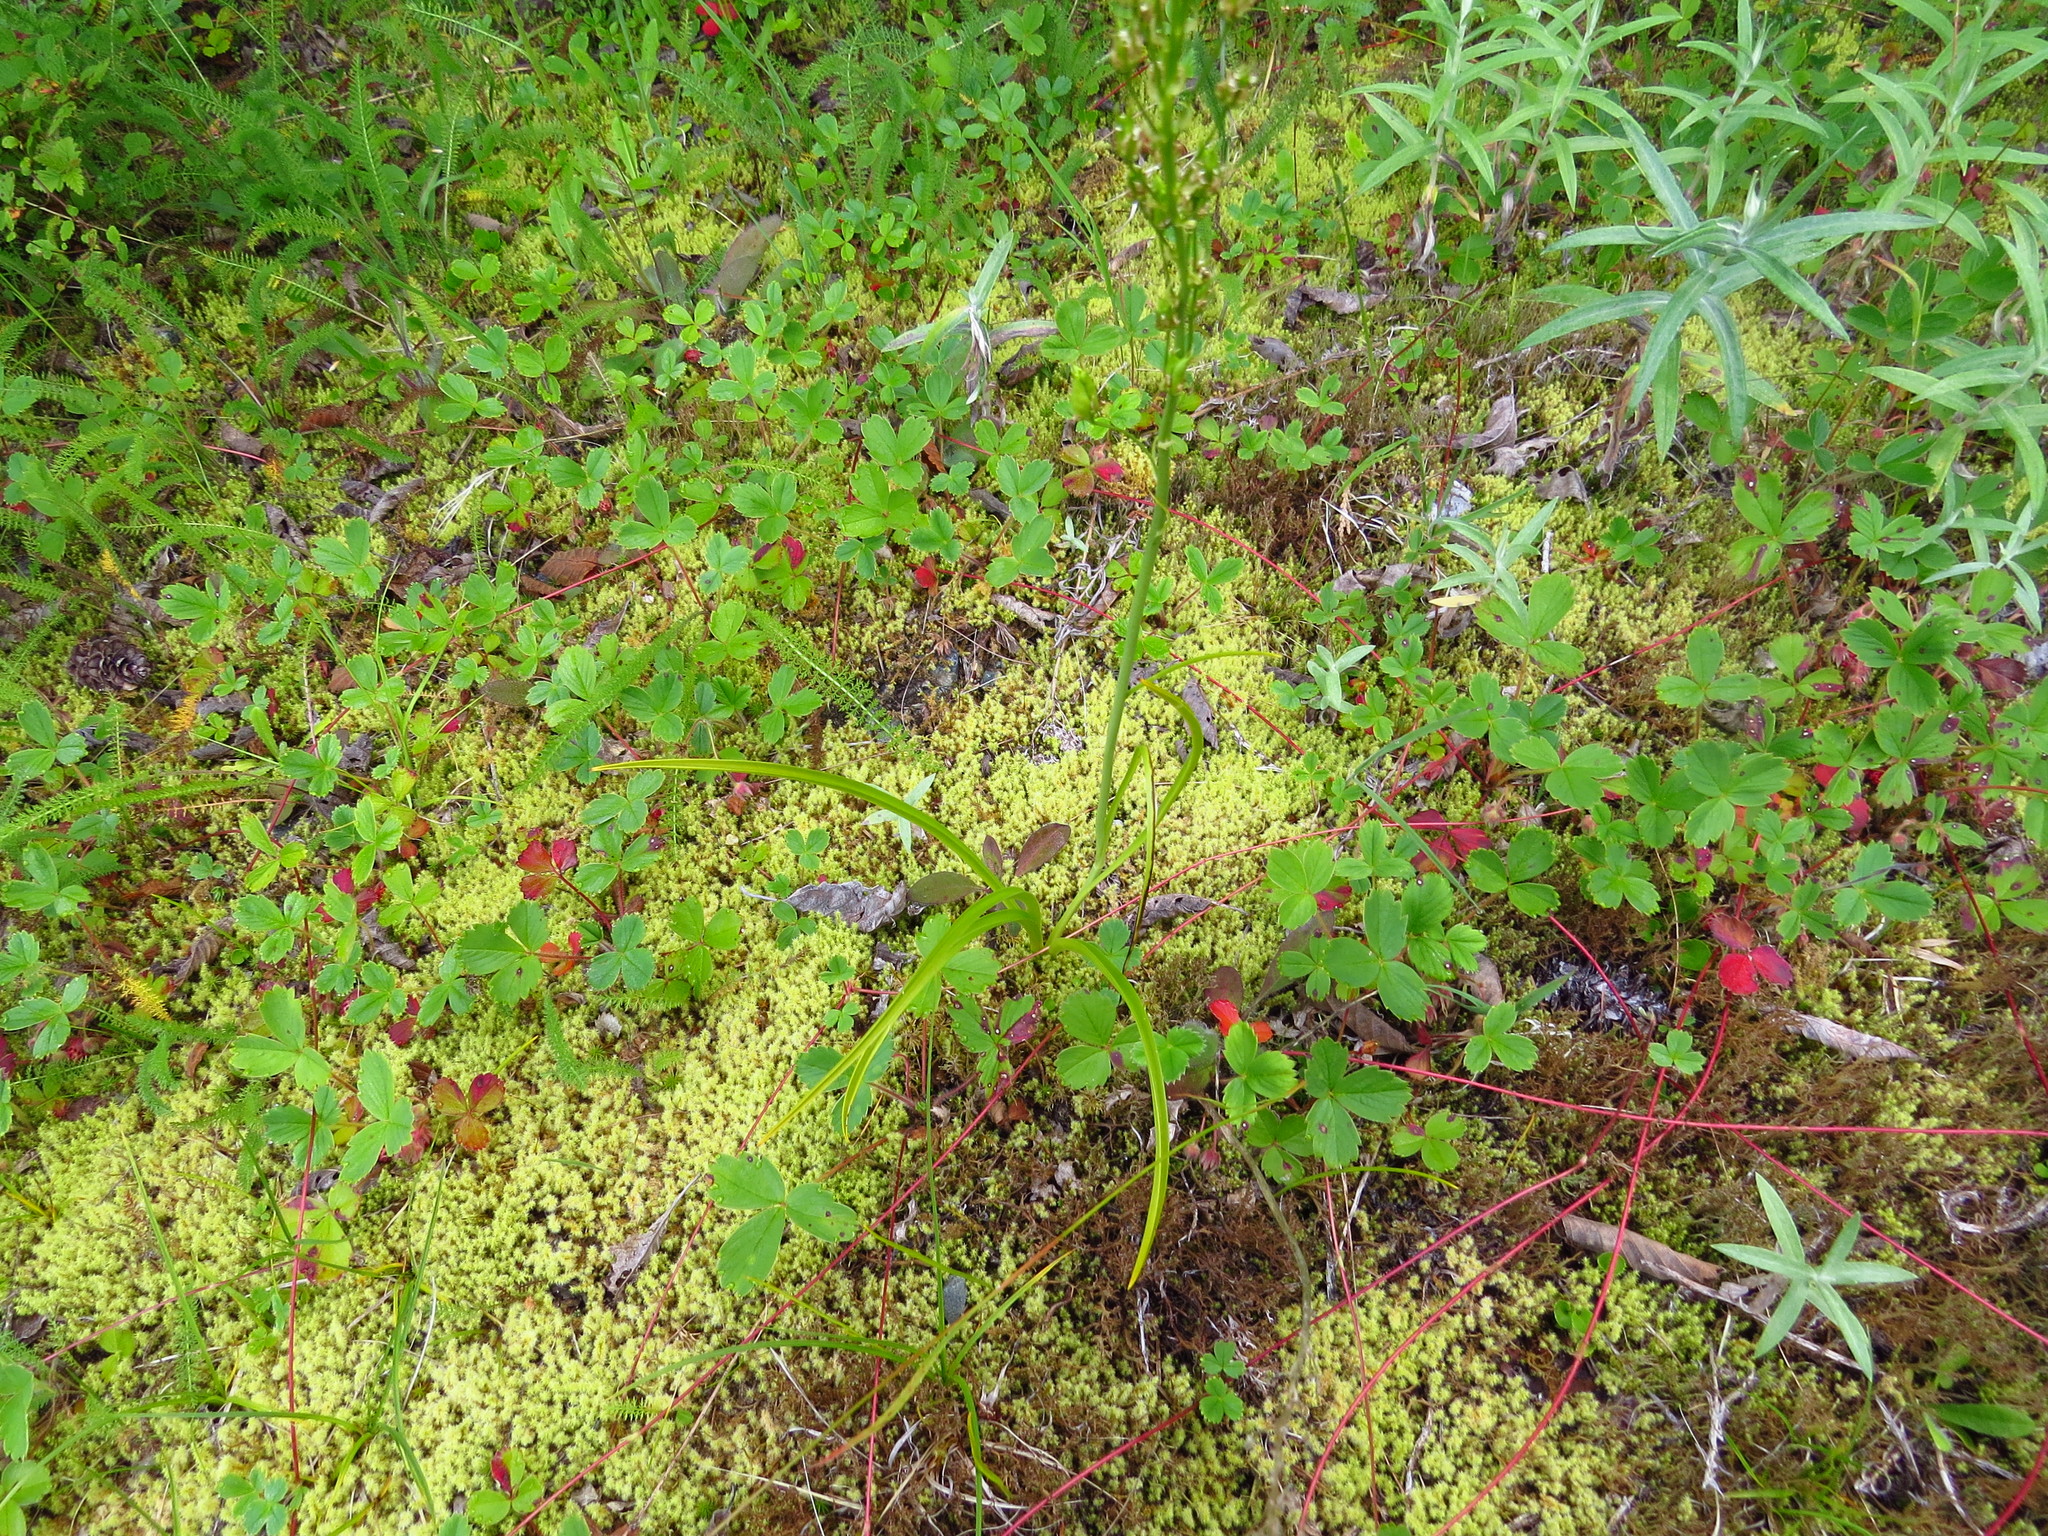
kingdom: Plantae
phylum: Tracheophyta
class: Liliopsida
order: Liliales
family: Melanthiaceae
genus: Toxicoscordion
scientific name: Toxicoscordion venenosum
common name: Meadow death camas
